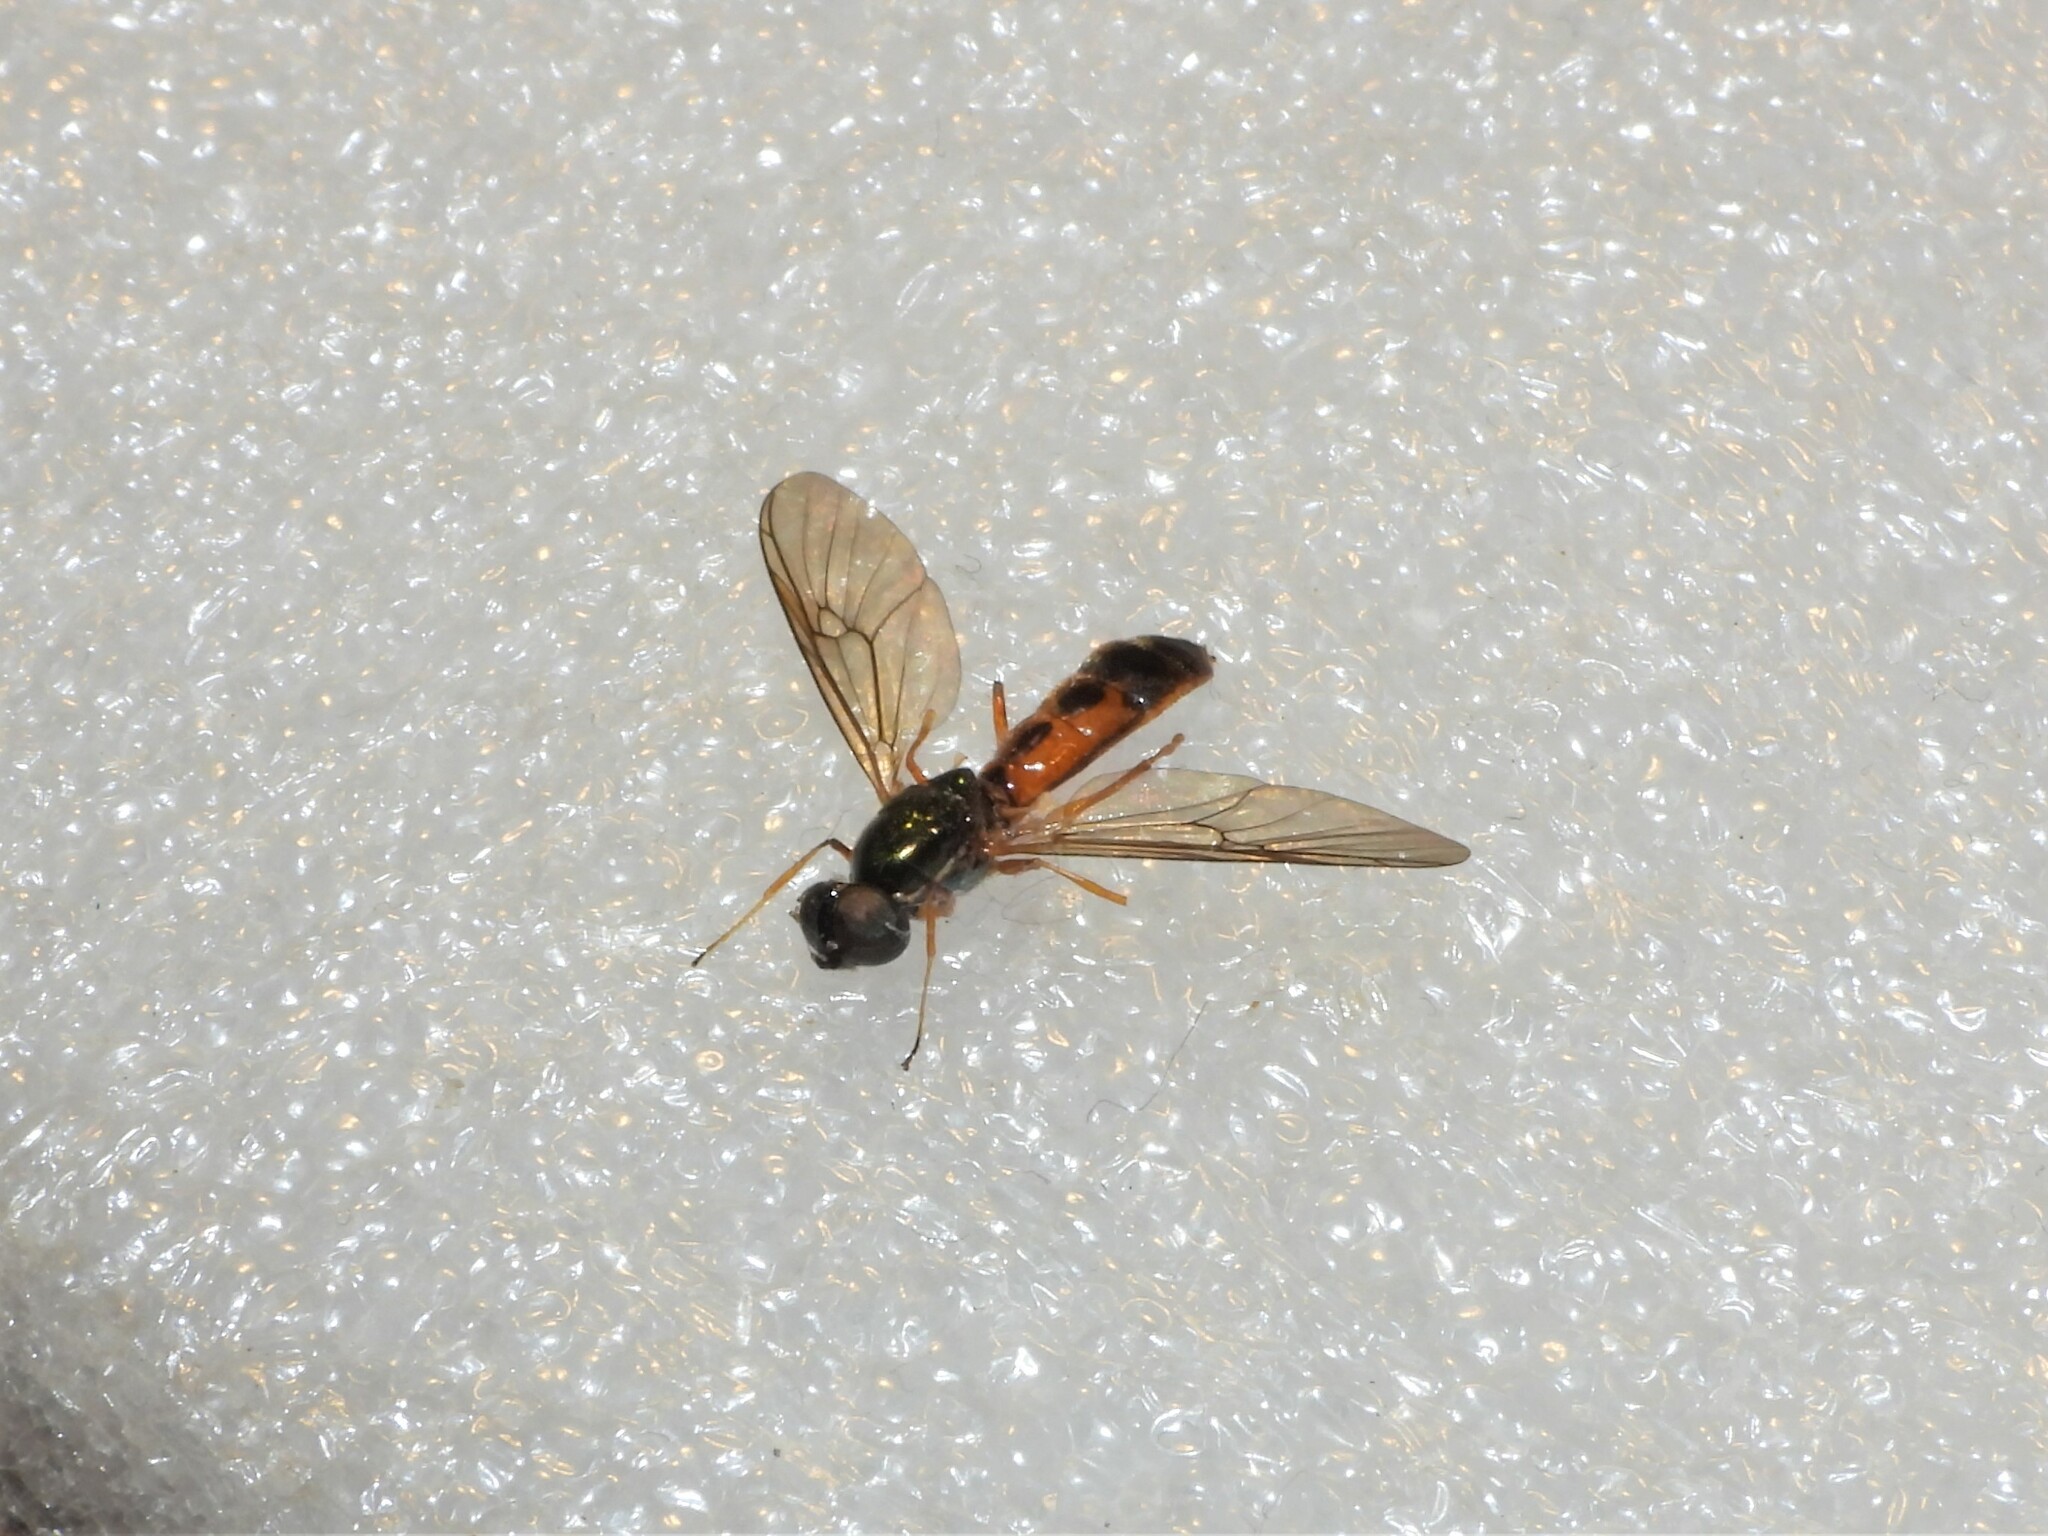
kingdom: Animalia
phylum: Arthropoda
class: Insecta
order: Diptera
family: Stratiomyidae
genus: Sargus
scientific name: Sargus bipunctatus
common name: Twin-spot centurion
